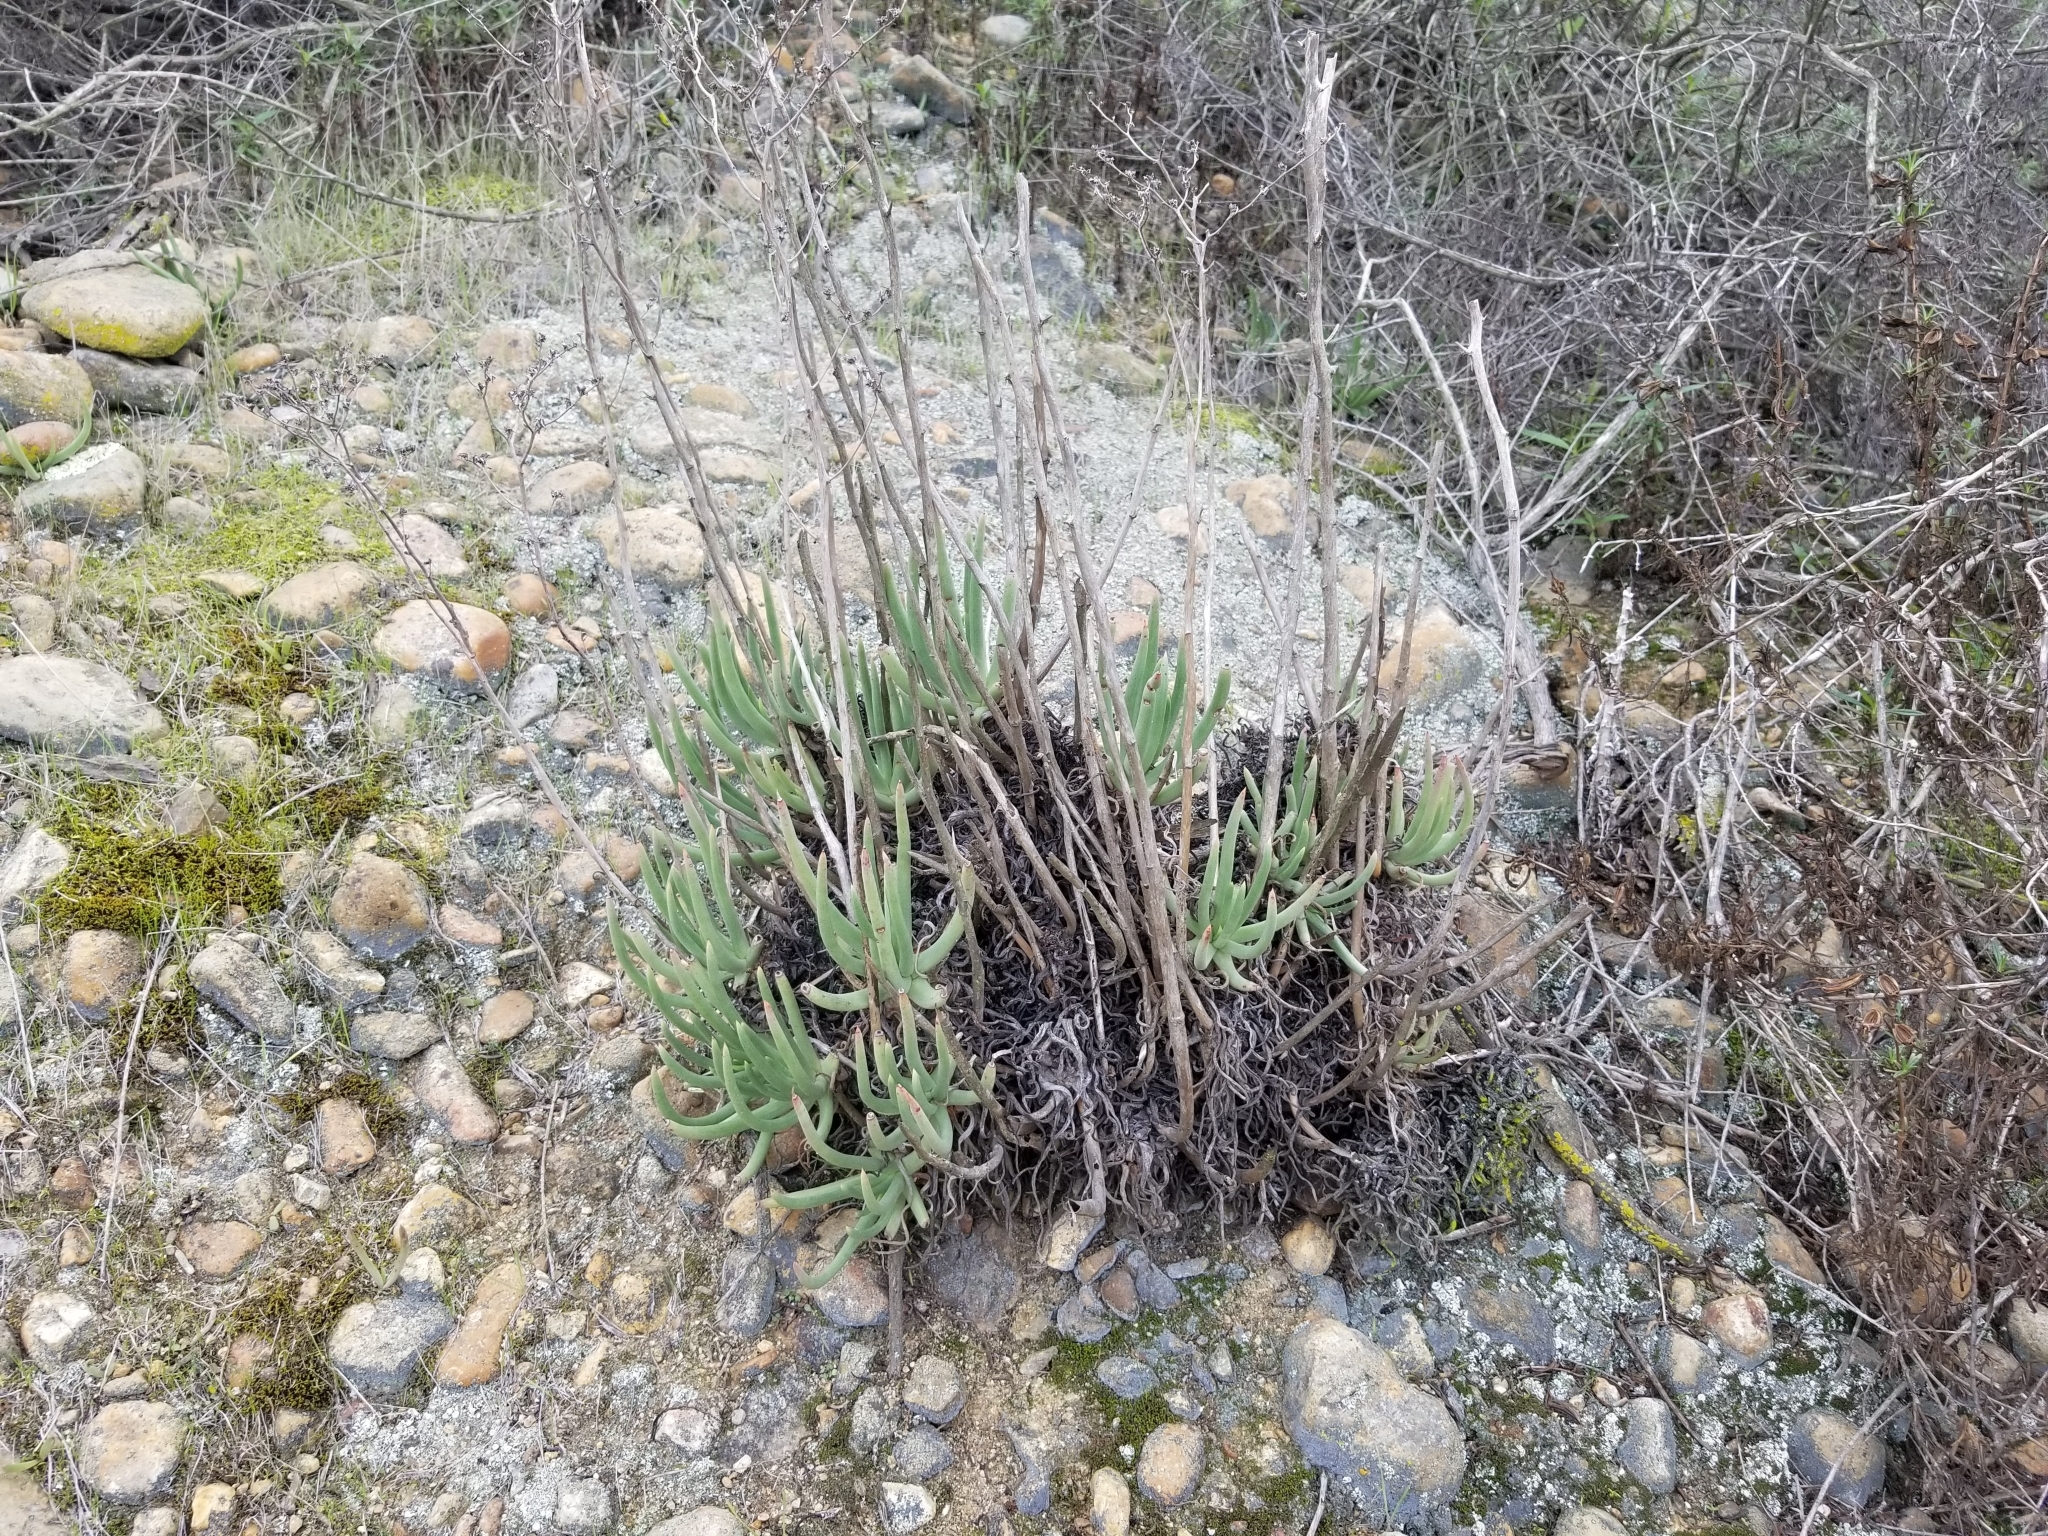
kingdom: Plantae
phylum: Tracheophyta
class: Magnoliopsida
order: Saxifragales
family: Crassulaceae
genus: Dudleya
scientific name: Dudleya edulis
